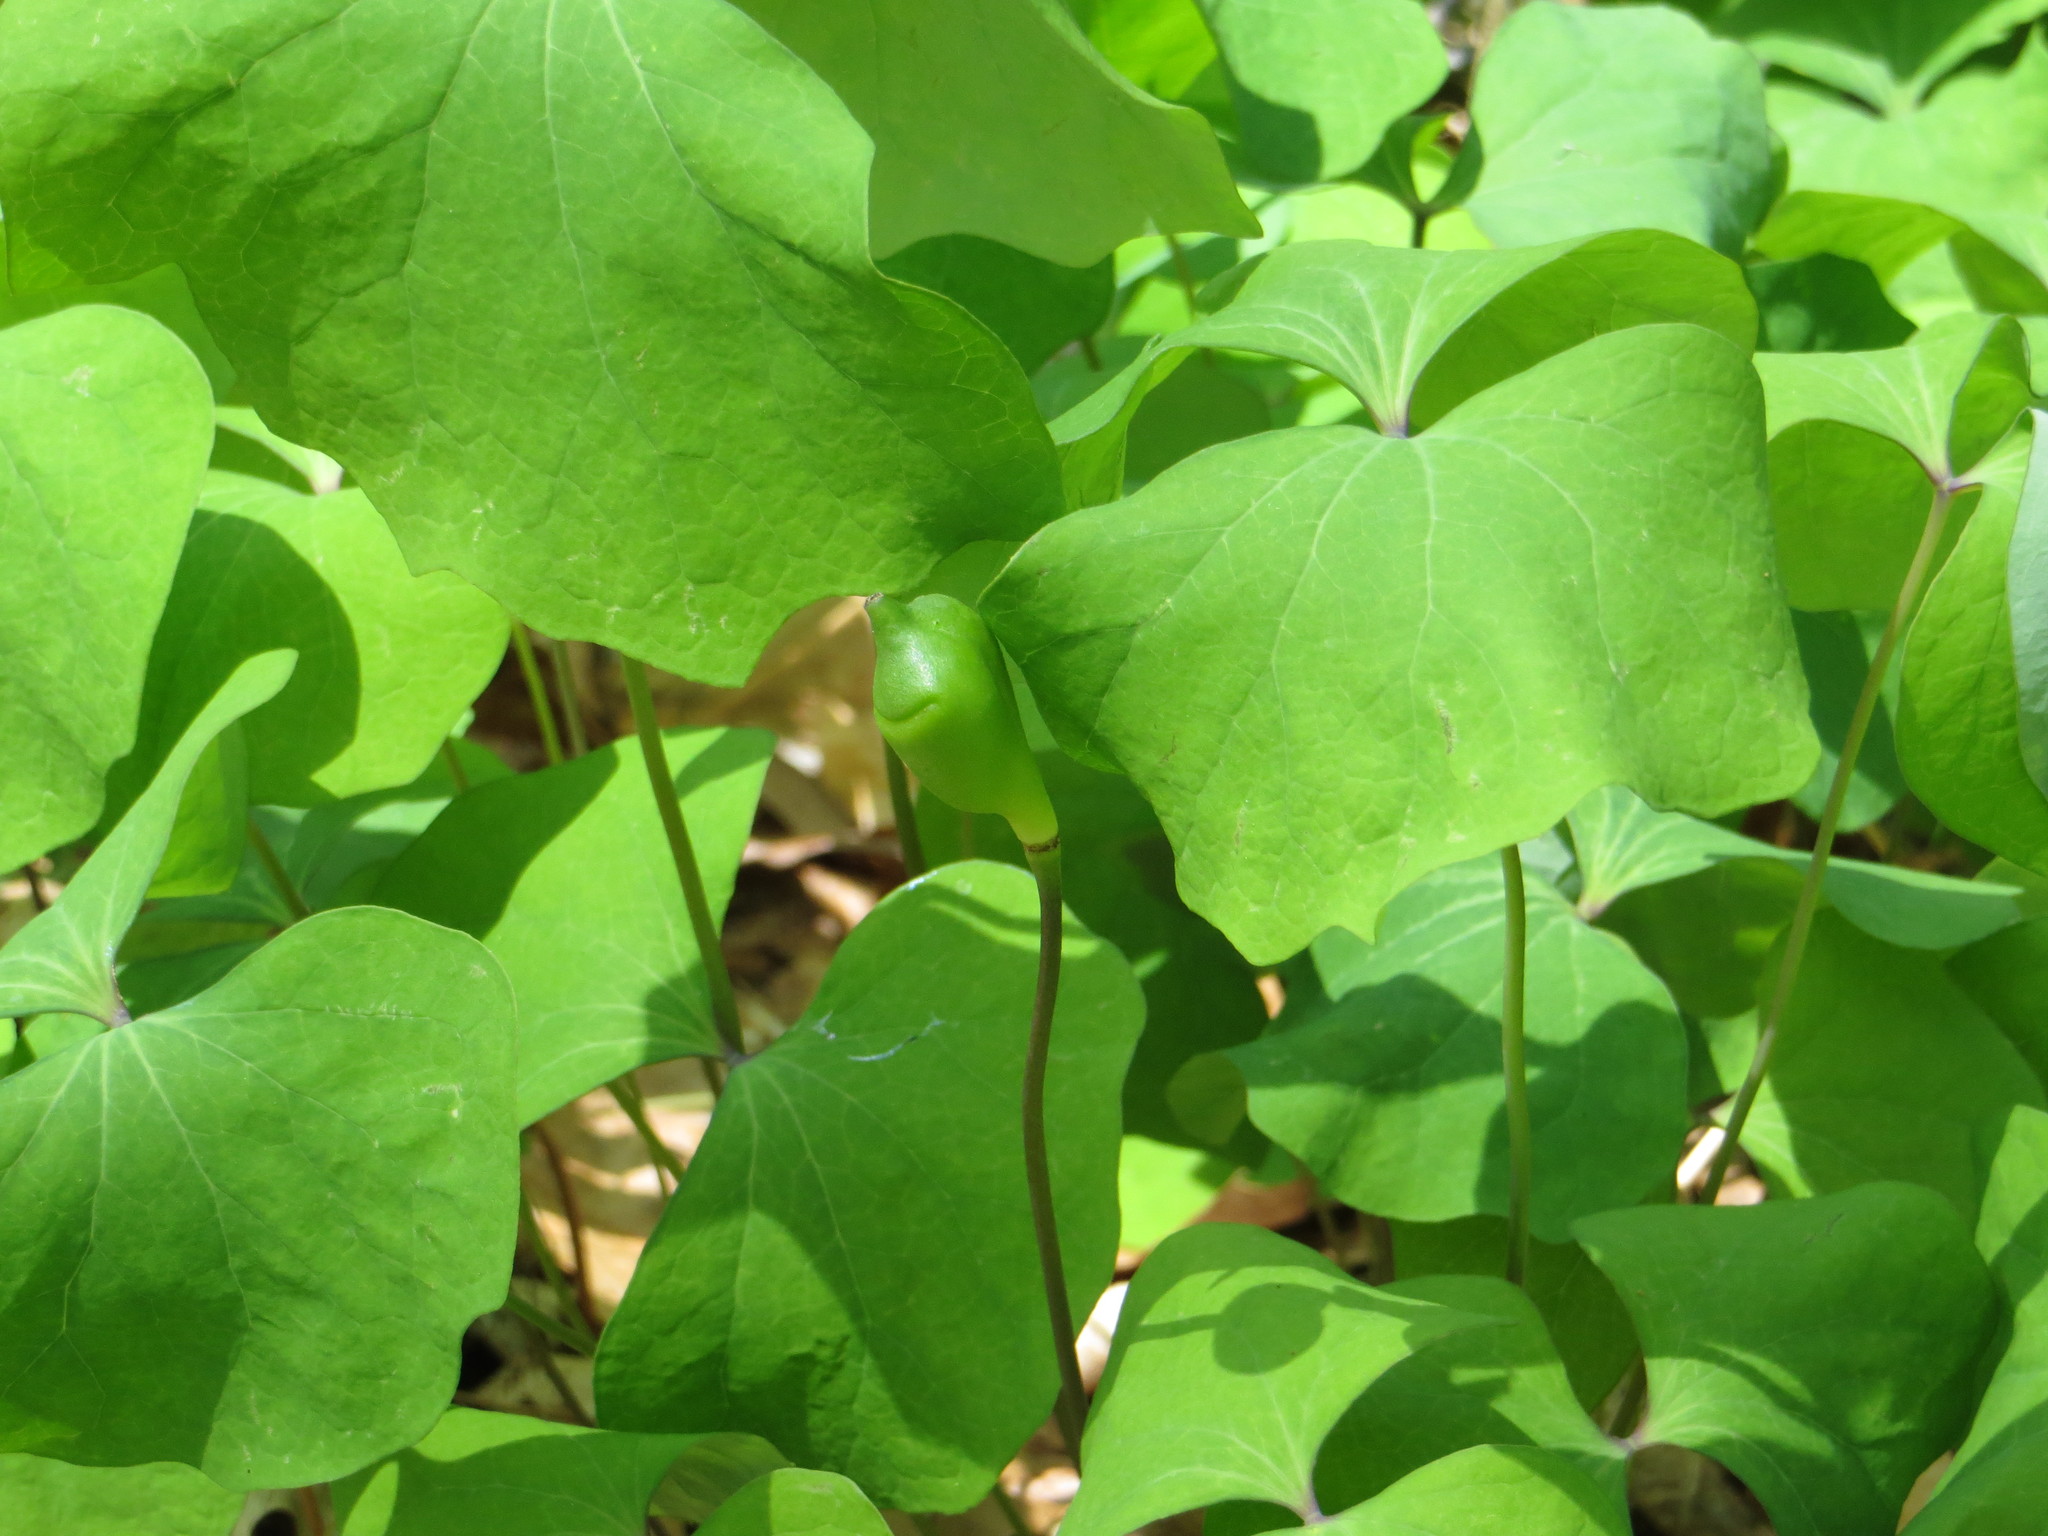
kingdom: Plantae
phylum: Tracheophyta
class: Magnoliopsida
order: Ranunculales
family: Berberidaceae
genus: Jeffersonia
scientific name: Jeffersonia diphylla
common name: Rheumatism-root
